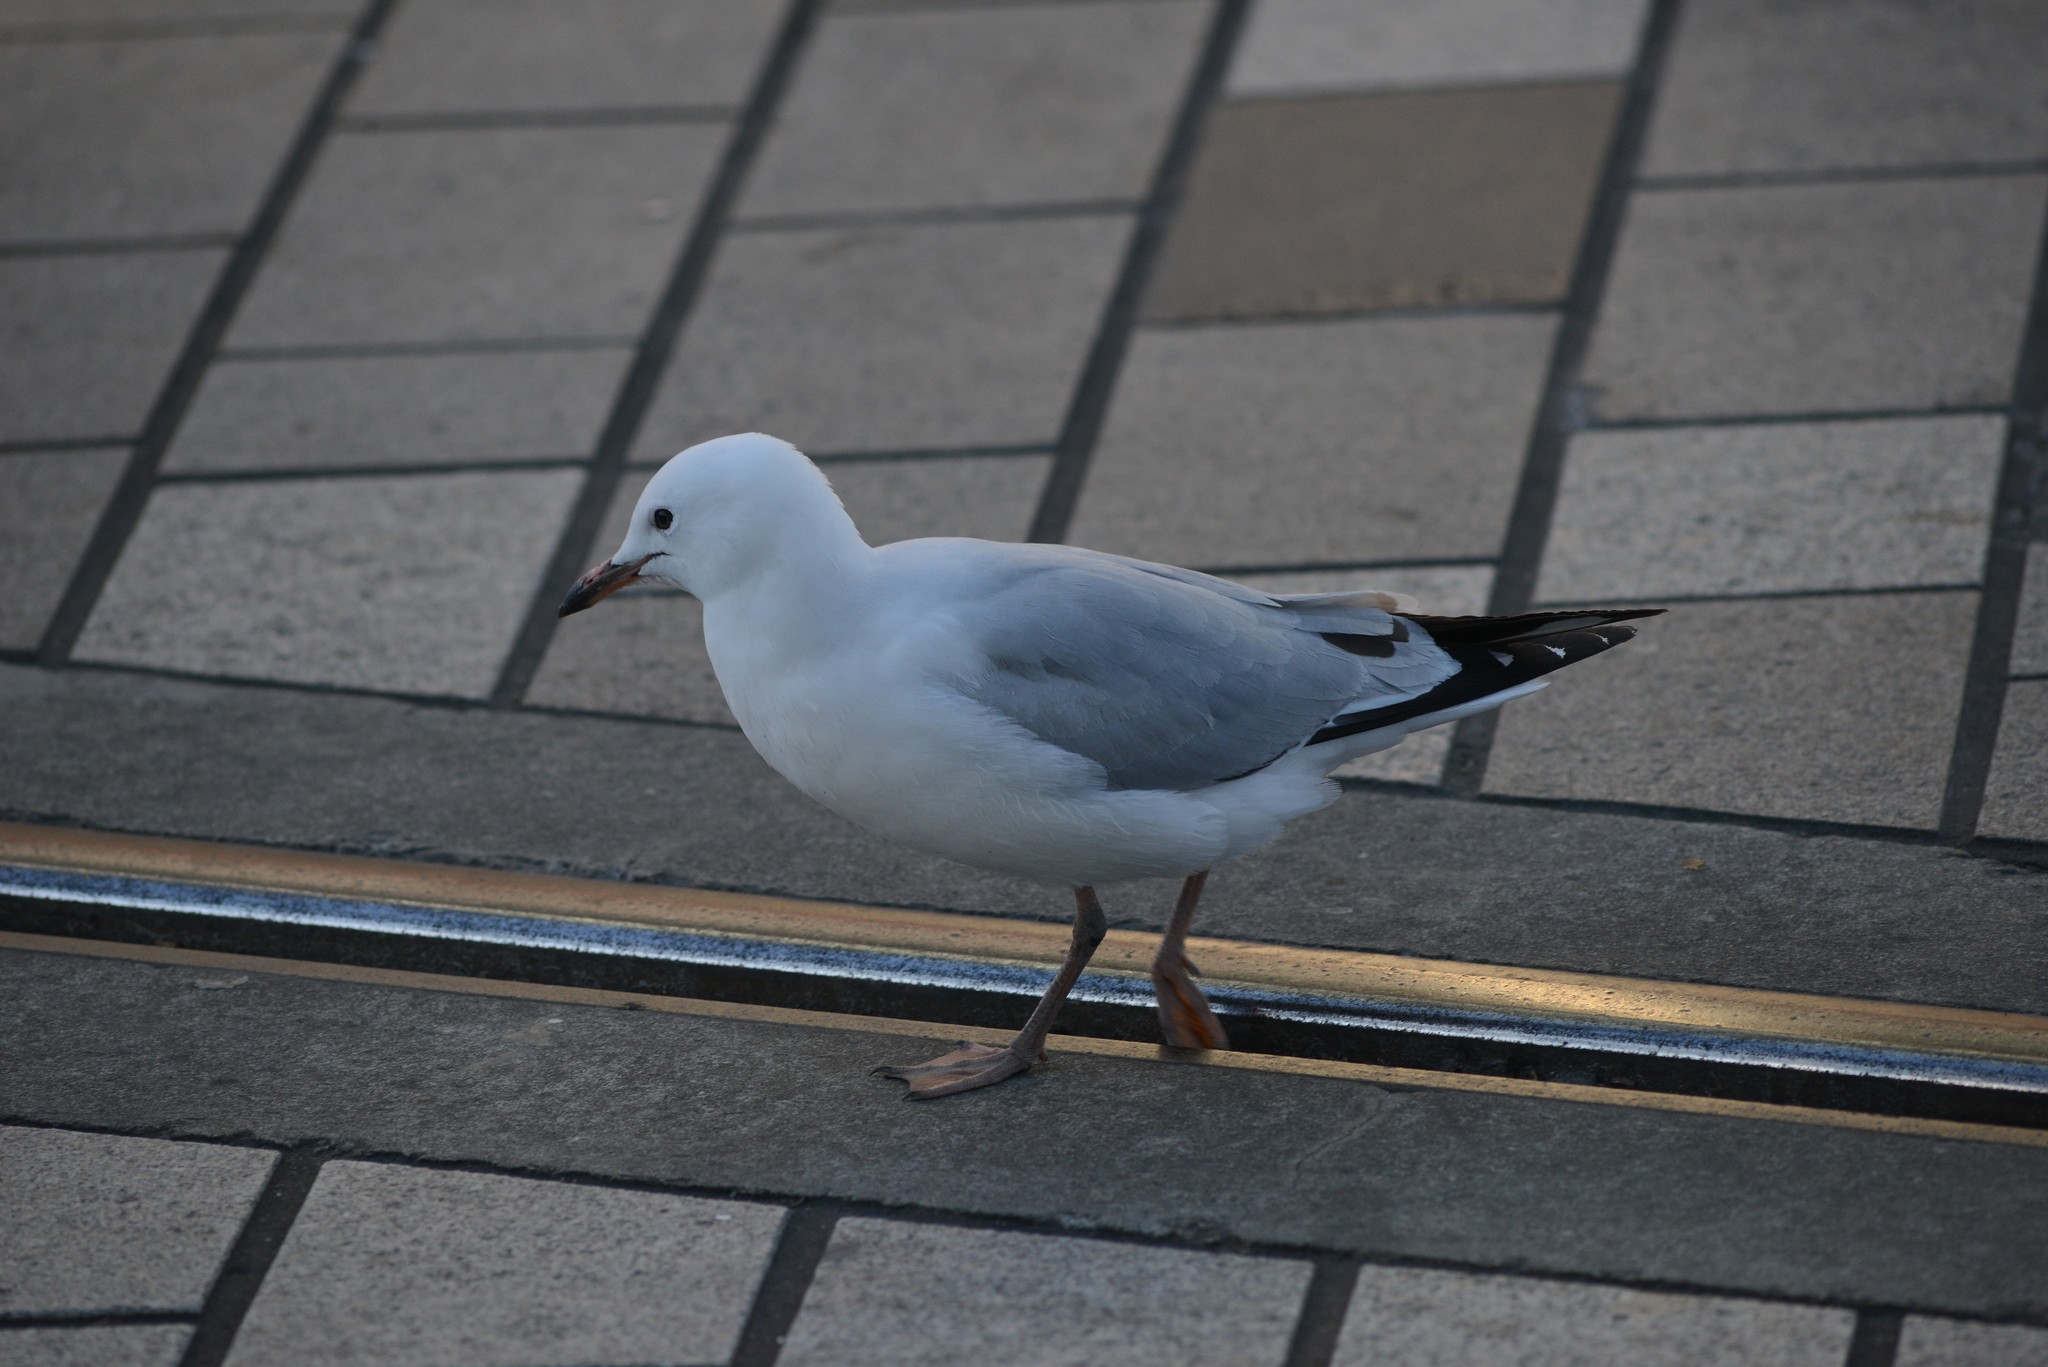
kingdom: Animalia
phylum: Chordata
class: Aves
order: Charadriiformes
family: Laridae
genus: Chroicocephalus
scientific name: Chroicocephalus novaehollandiae
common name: Silver gull
